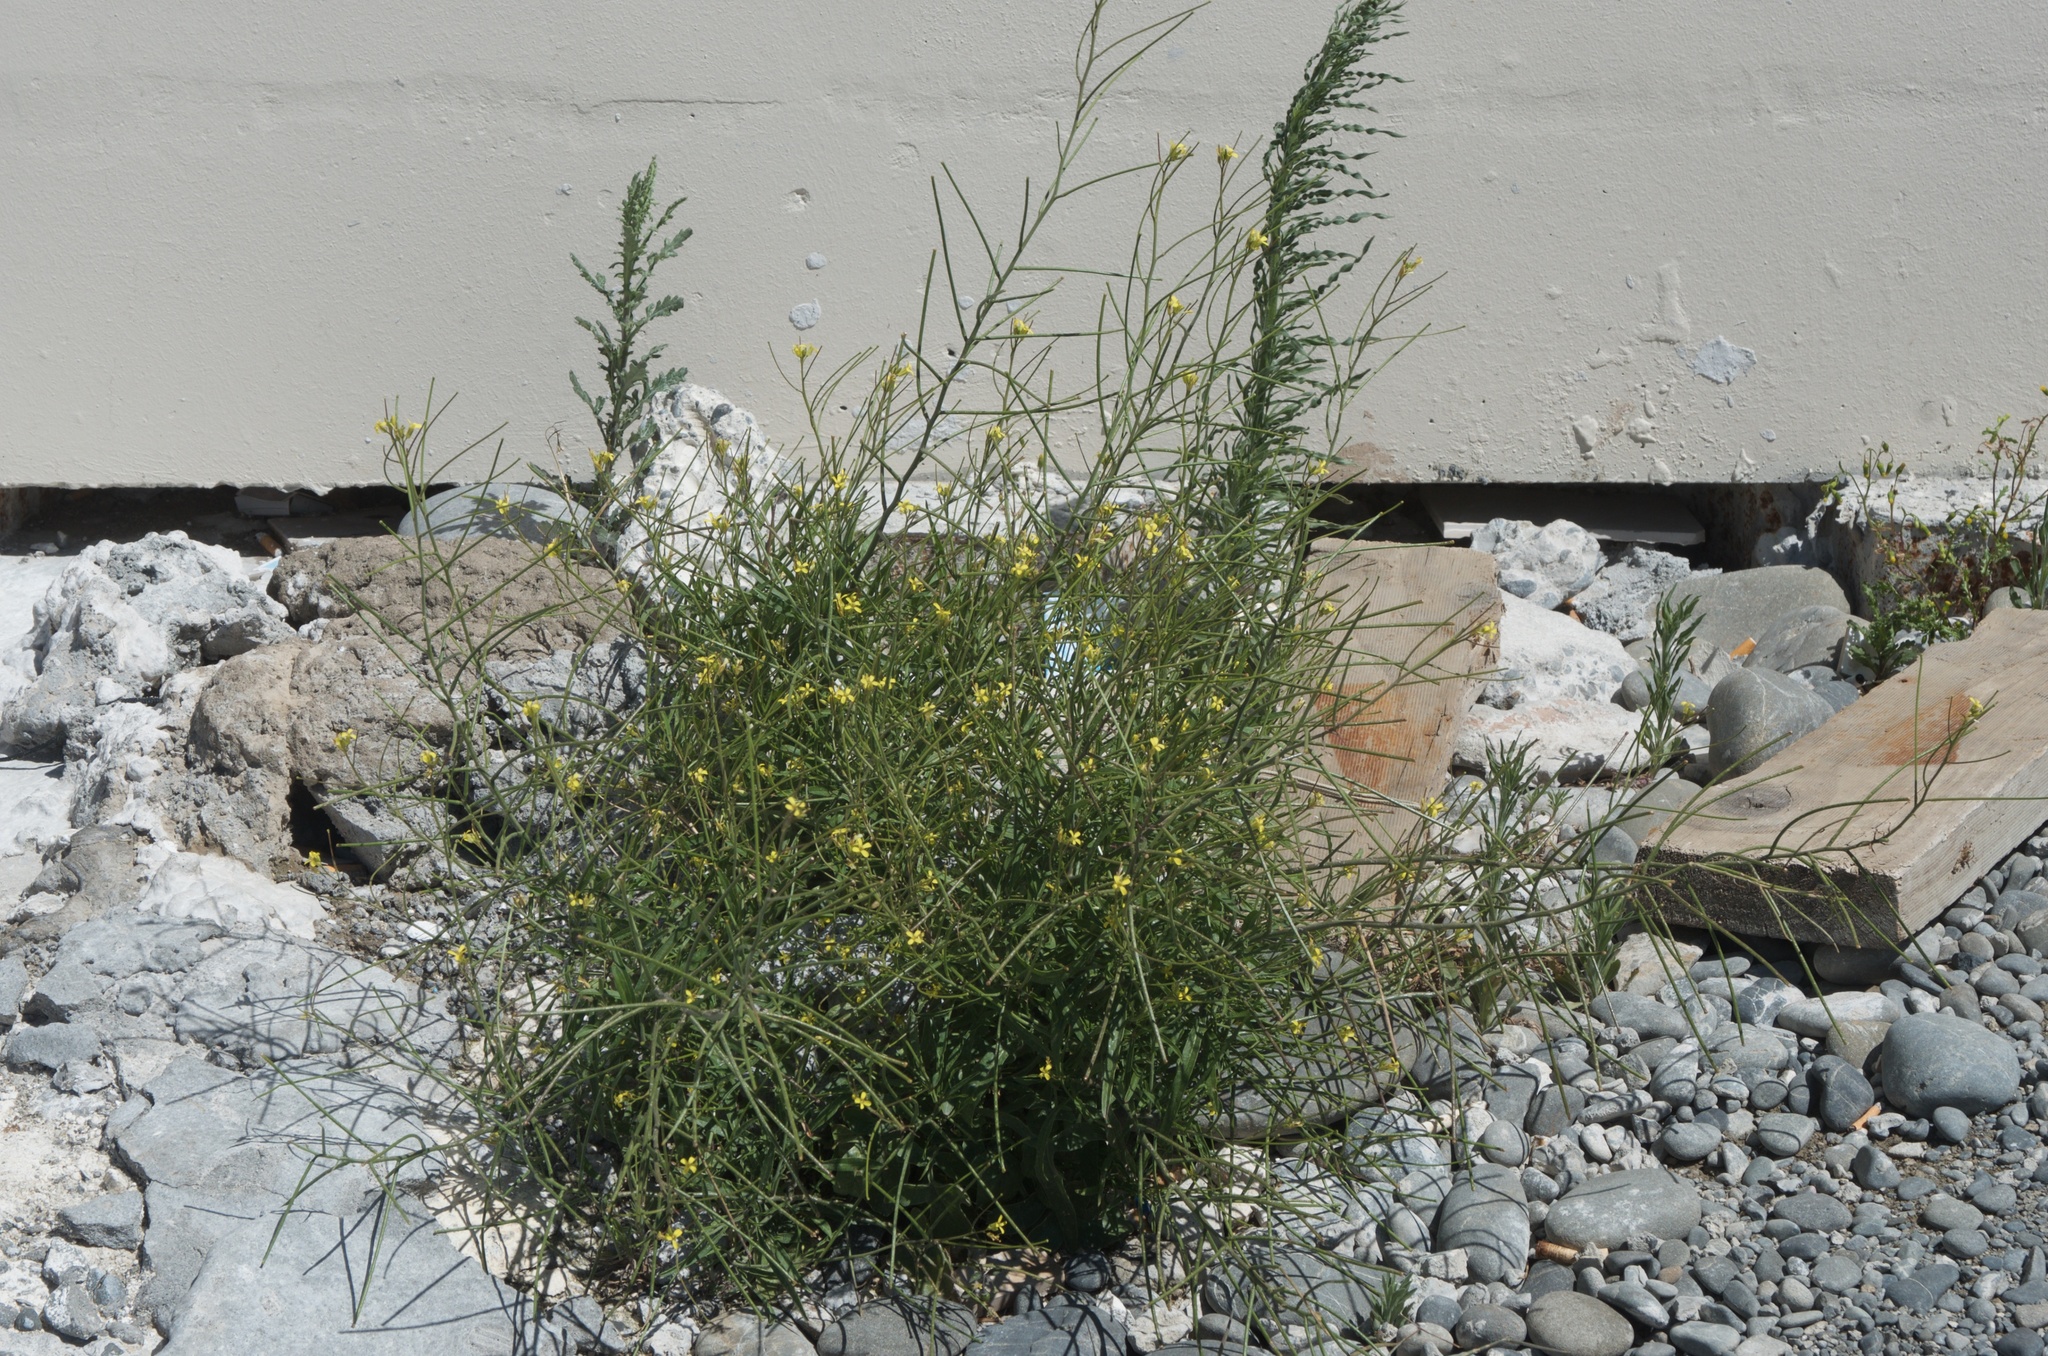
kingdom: Plantae
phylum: Tracheophyta
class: Magnoliopsida
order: Brassicales
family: Brassicaceae
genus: Sisymbrium
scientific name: Sisymbrium orientale
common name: Eastern rocket
